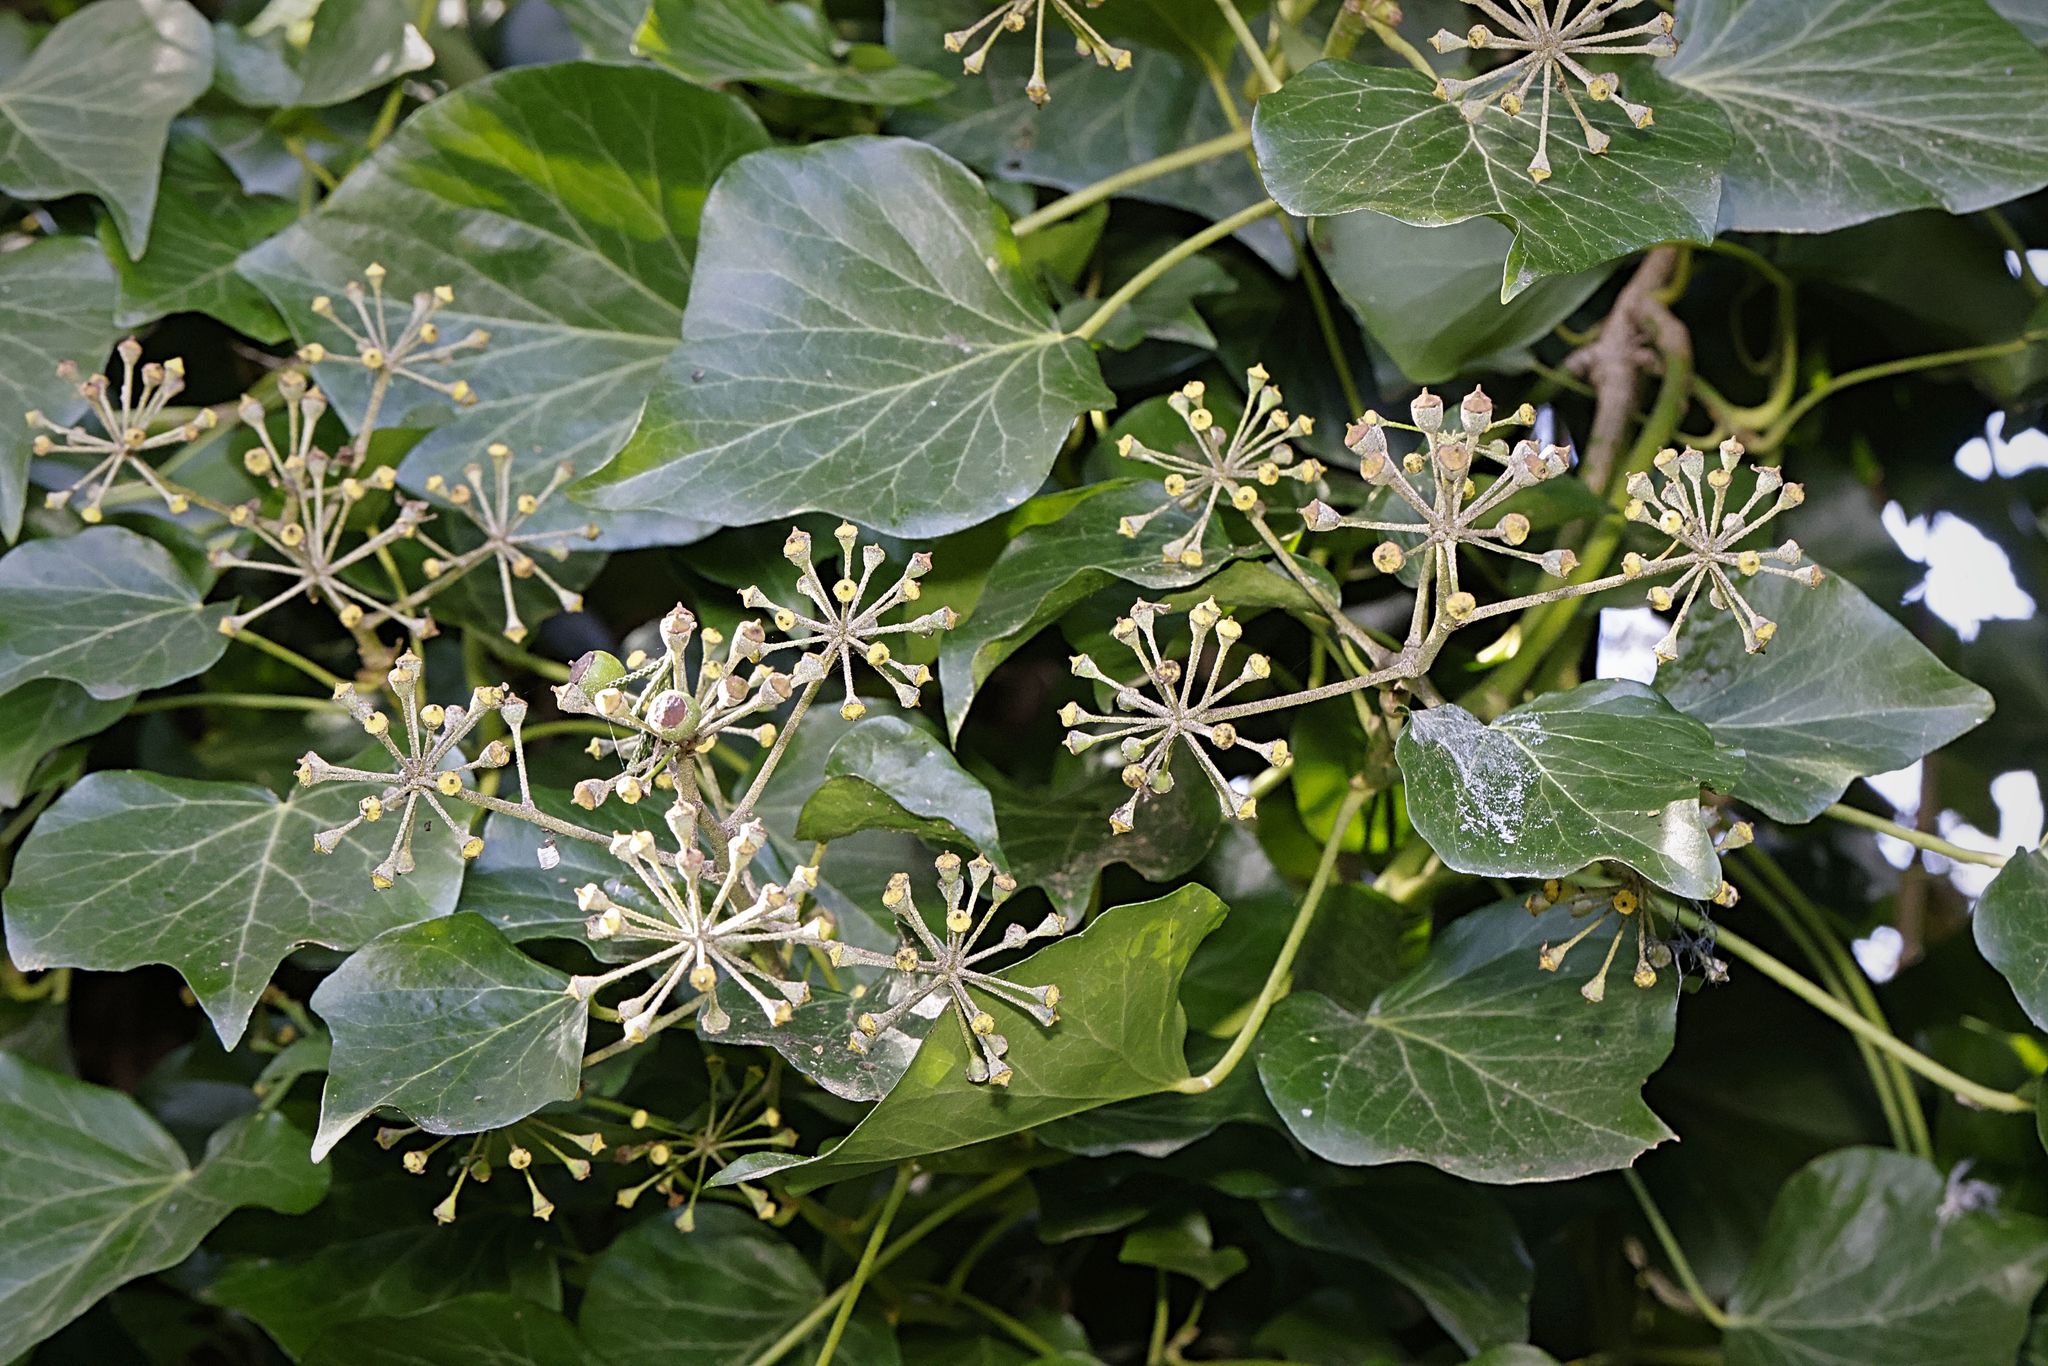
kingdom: Plantae
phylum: Tracheophyta
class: Magnoliopsida
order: Apiales
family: Araliaceae
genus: Hedera
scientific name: Hedera helix
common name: Ivy
